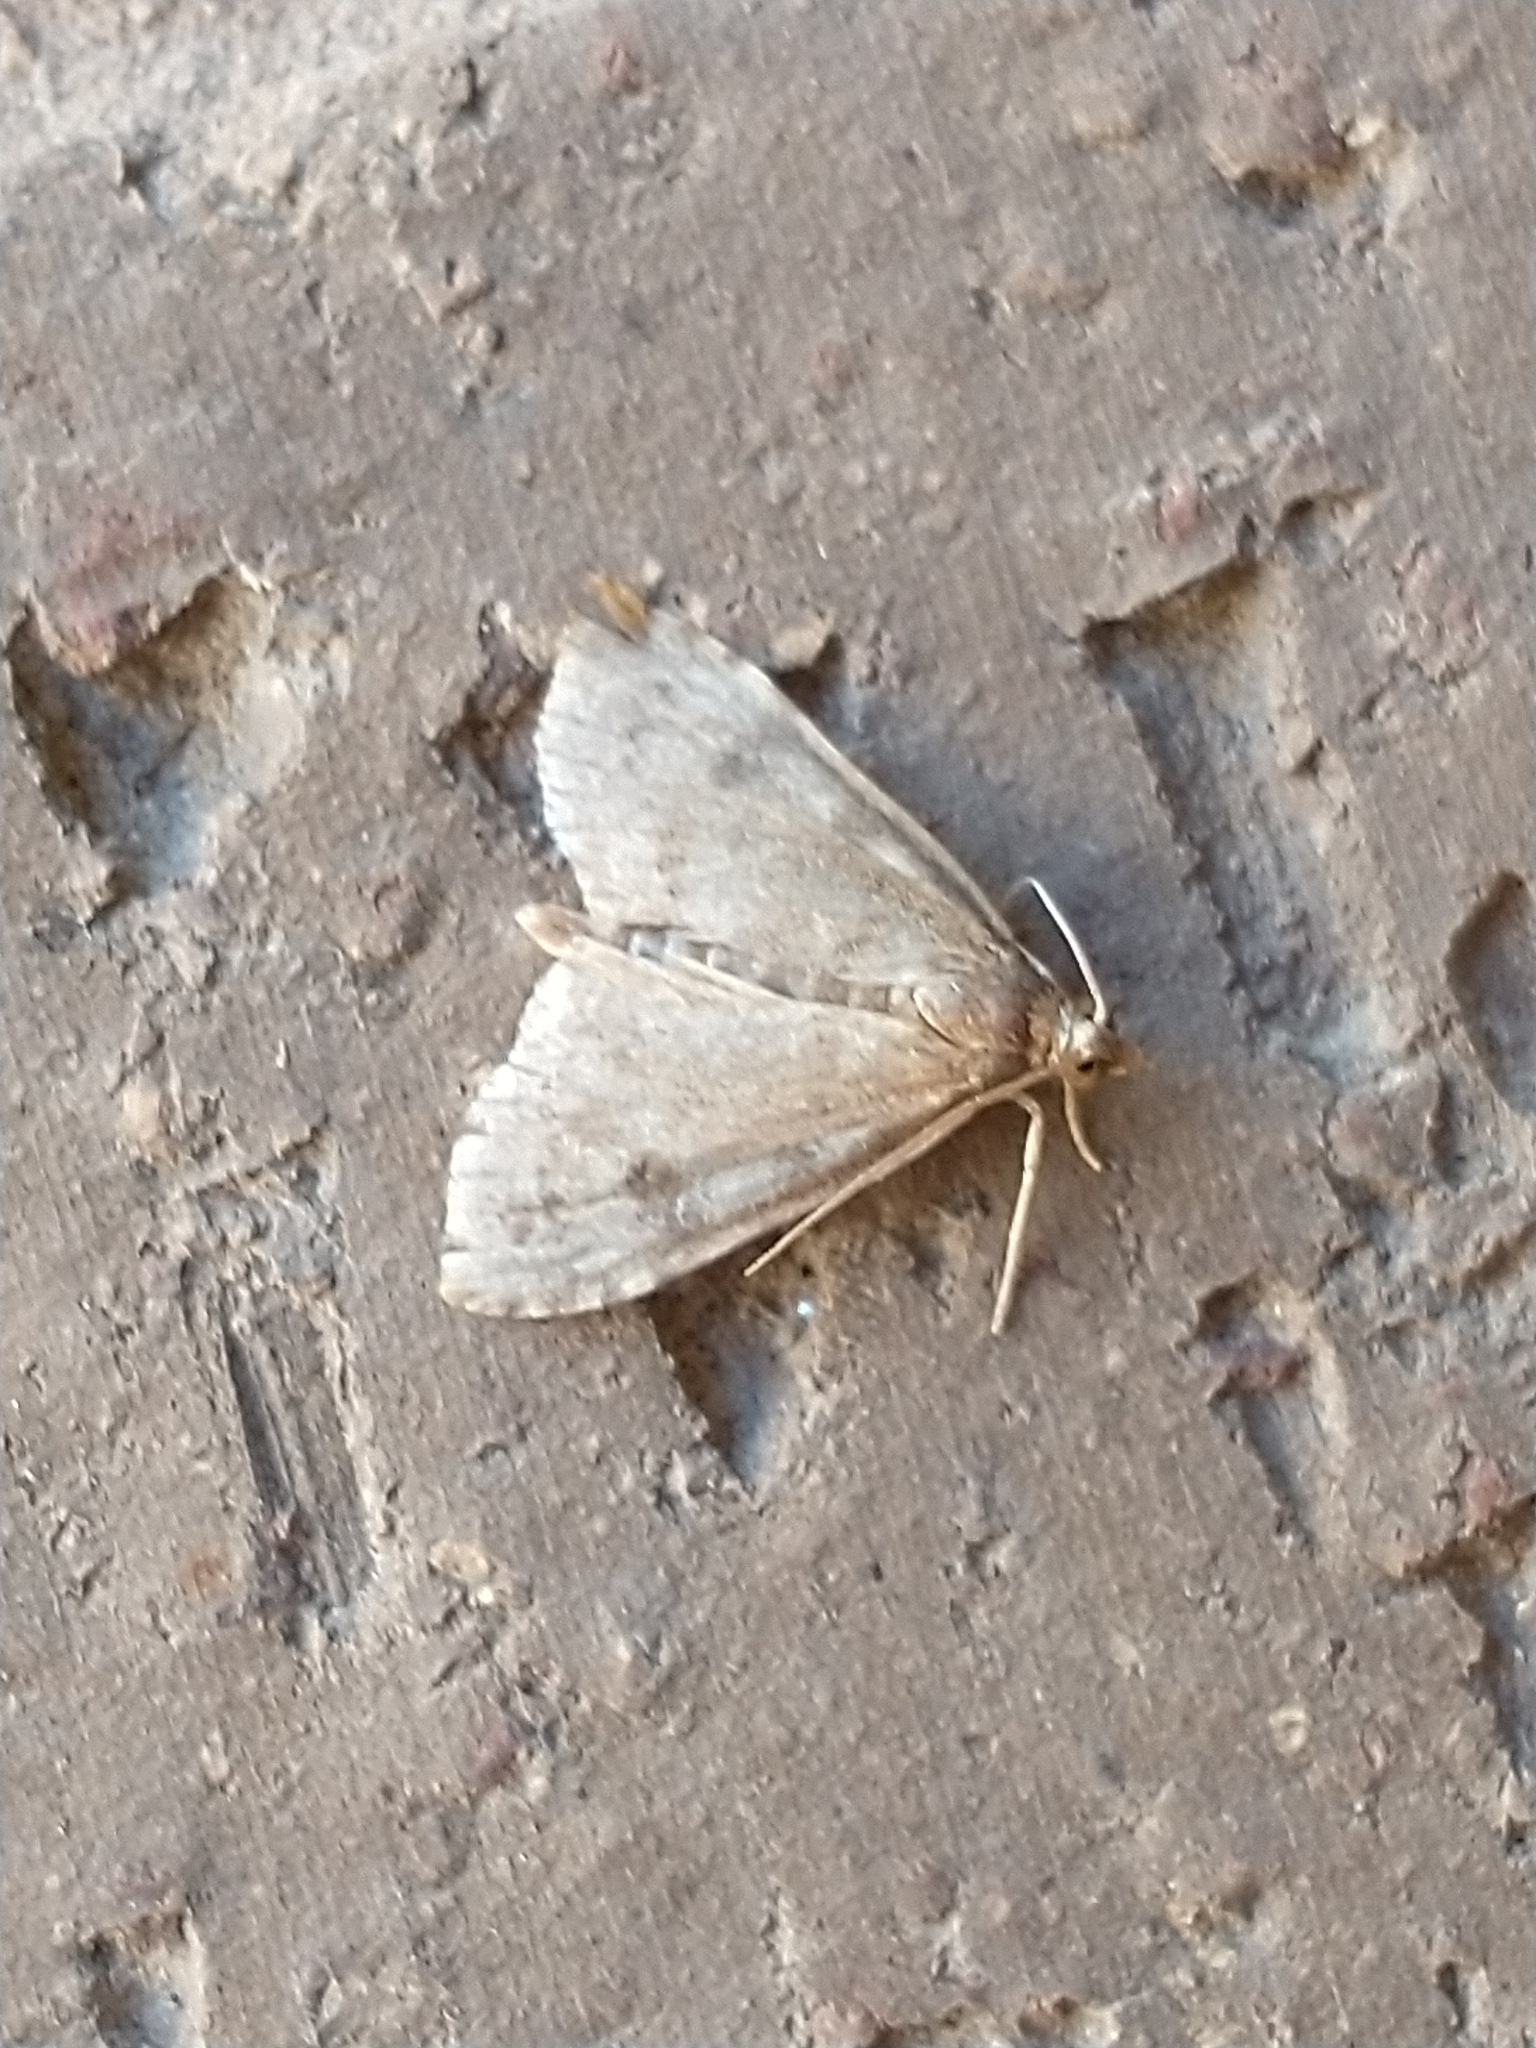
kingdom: Animalia
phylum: Arthropoda
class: Insecta
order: Lepidoptera
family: Crambidae
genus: Udea
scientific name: Udea prunalis
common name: Dusky pearl
